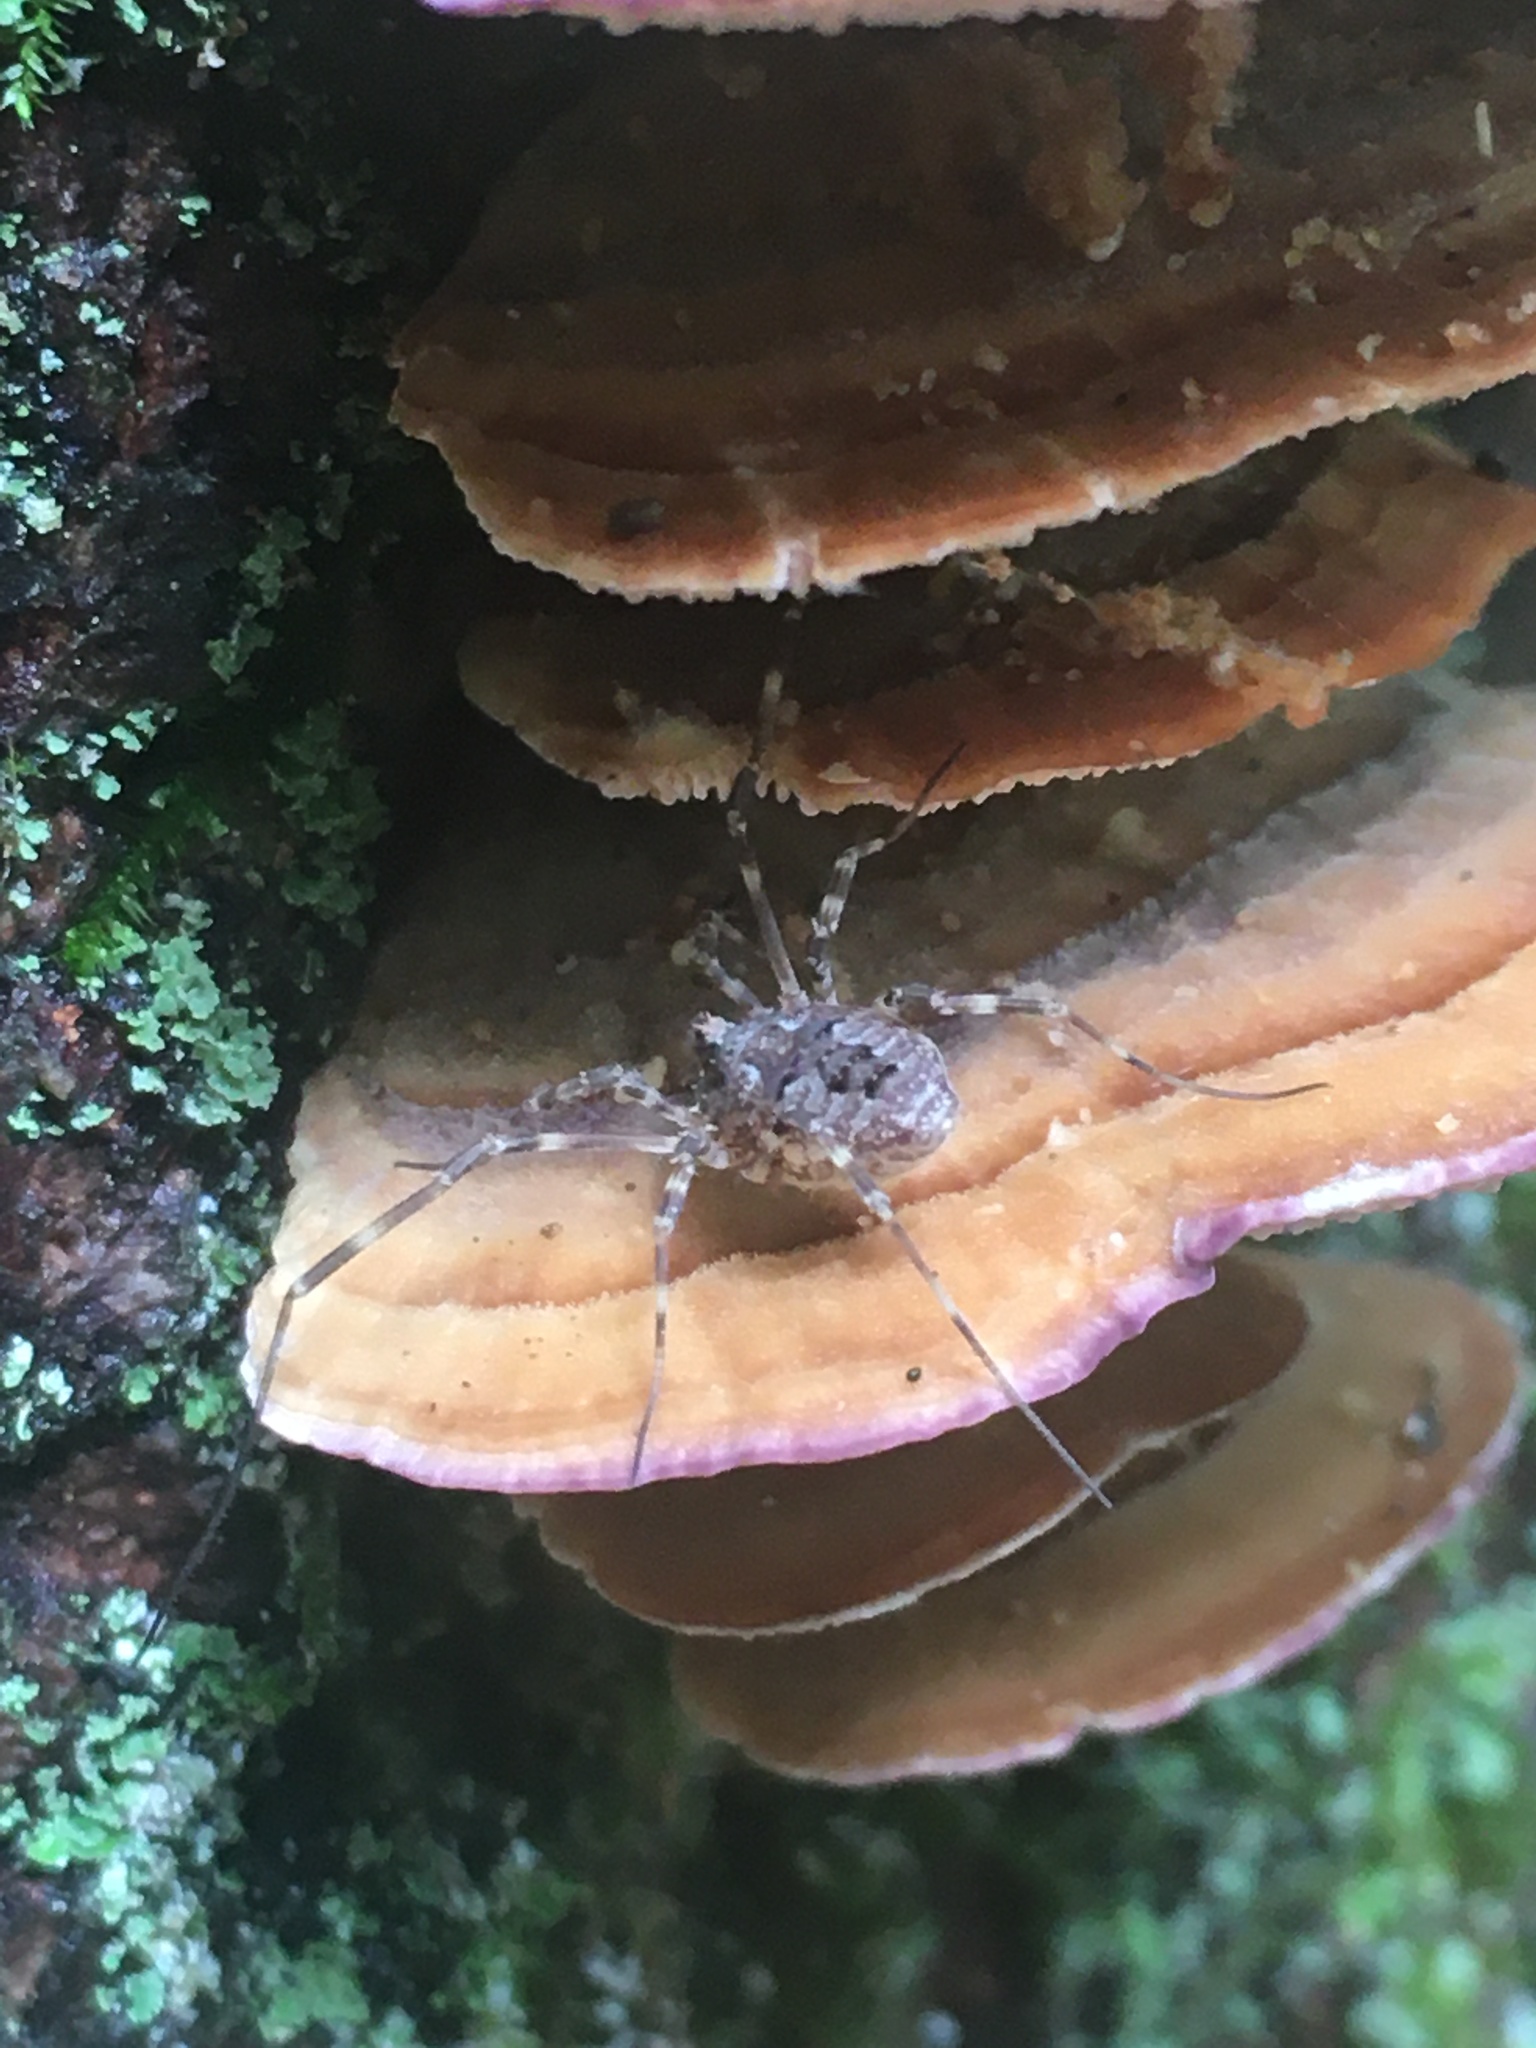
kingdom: Animalia
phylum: Arthropoda
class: Arachnida
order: Opiliones
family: Phalangiidae
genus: Odiellus
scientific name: Odiellus pictus
